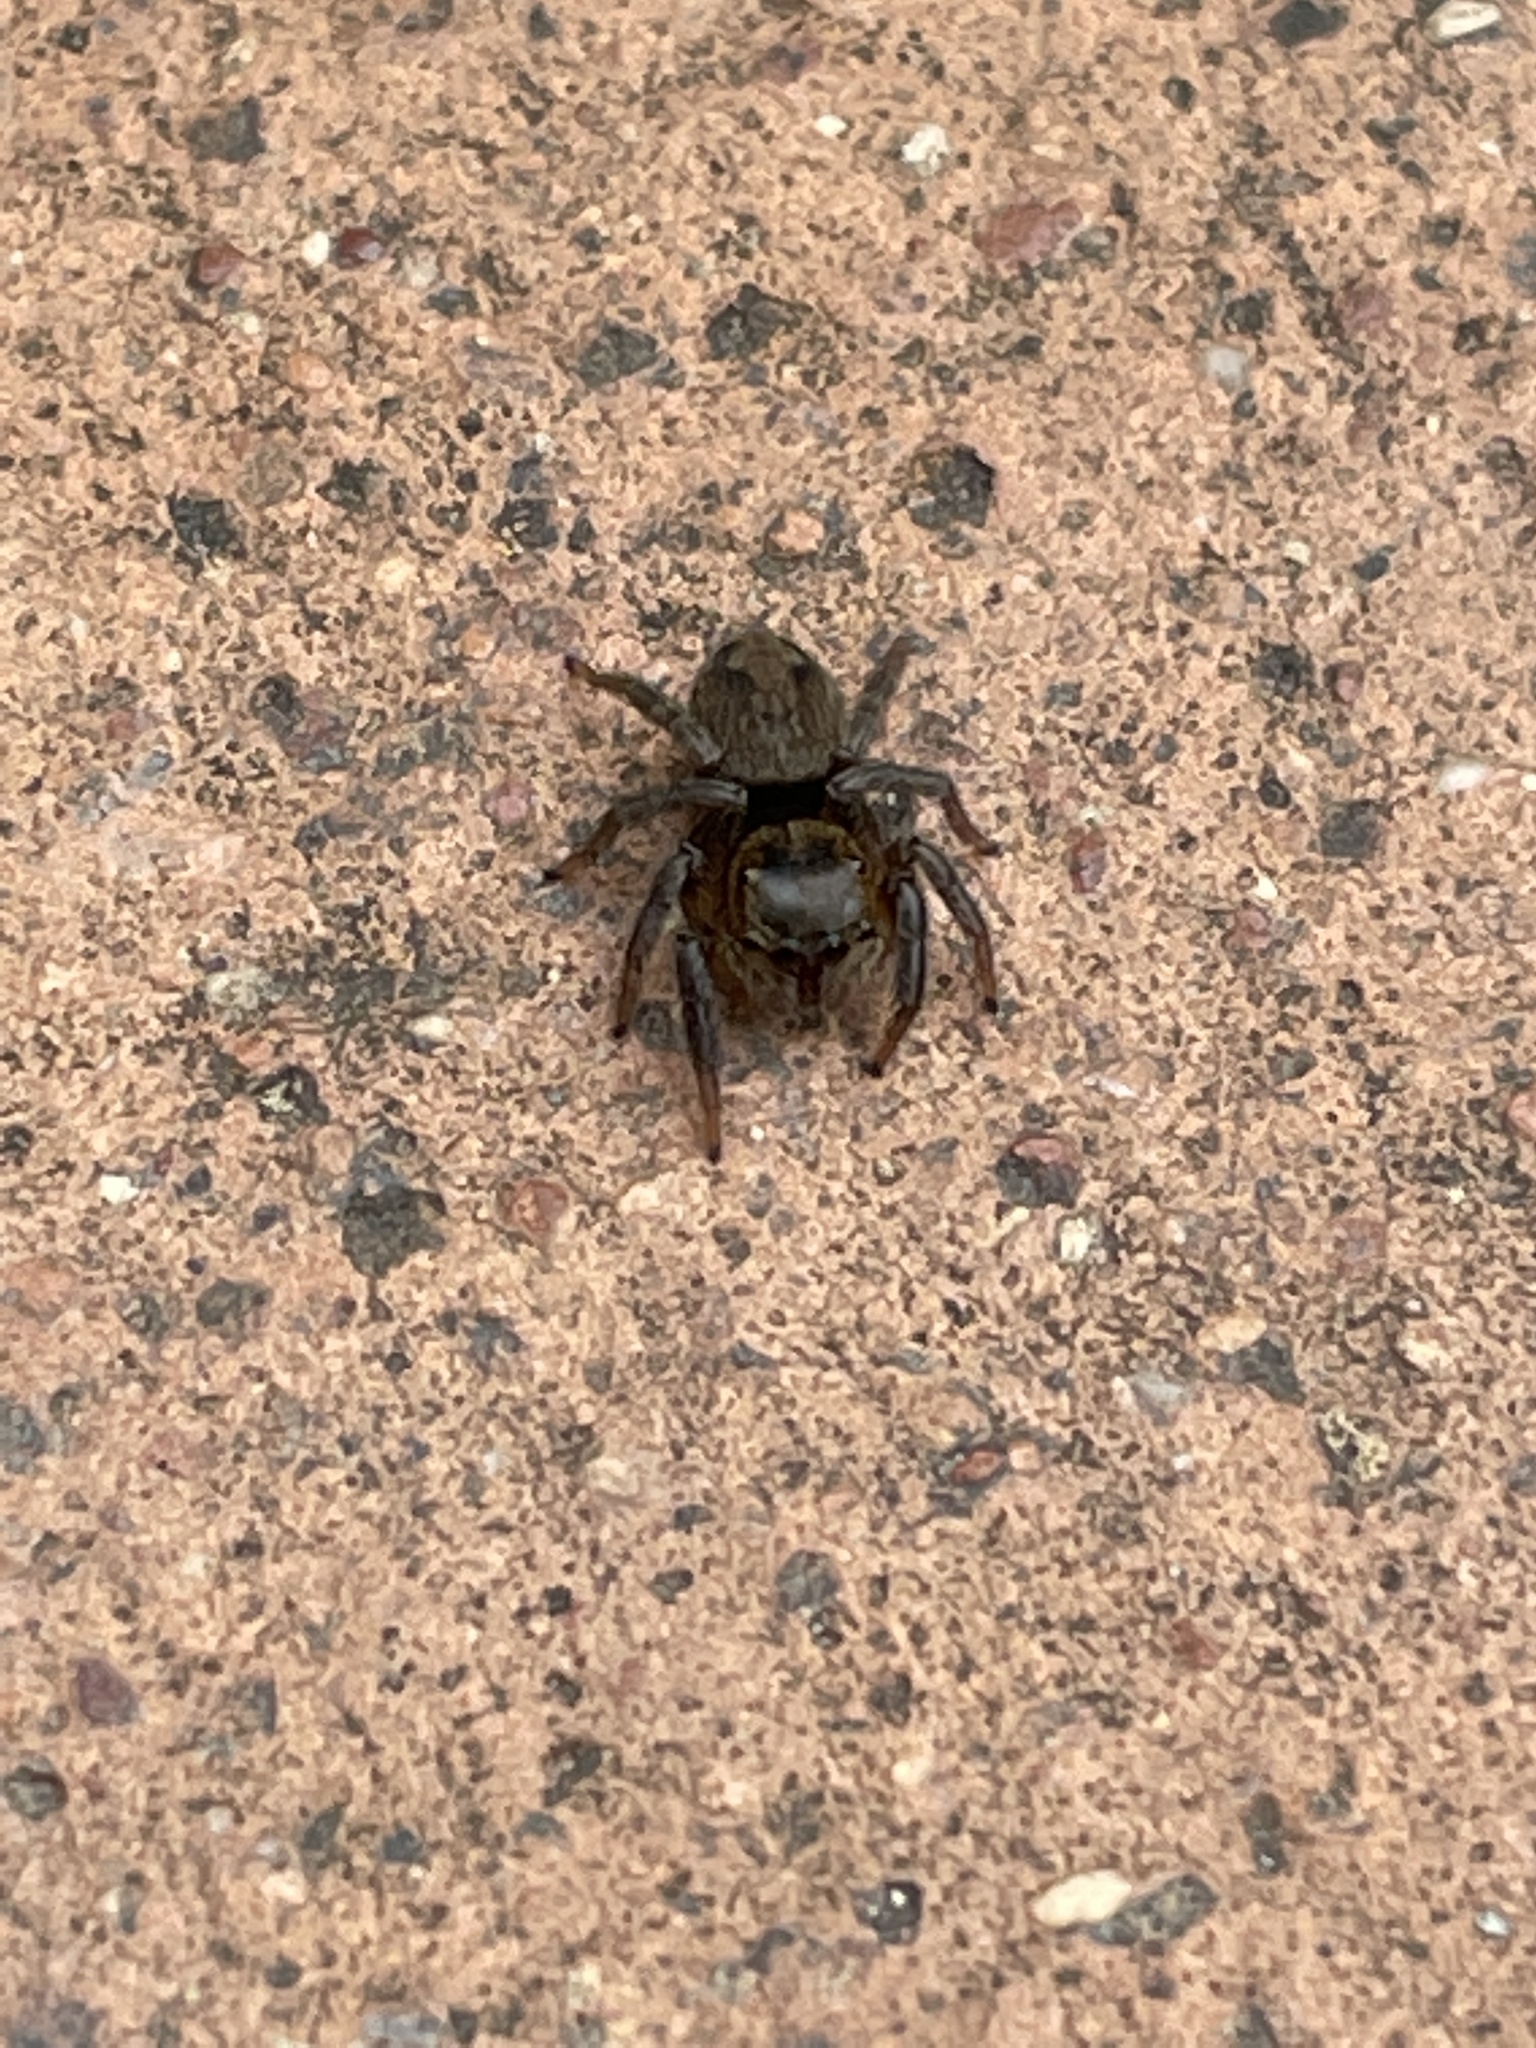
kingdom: Animalia
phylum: Arthropoda
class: Arachnida
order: Araneae
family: Salticidae
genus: Hasarius
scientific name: Hasarius adansoni
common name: Jumping spider
